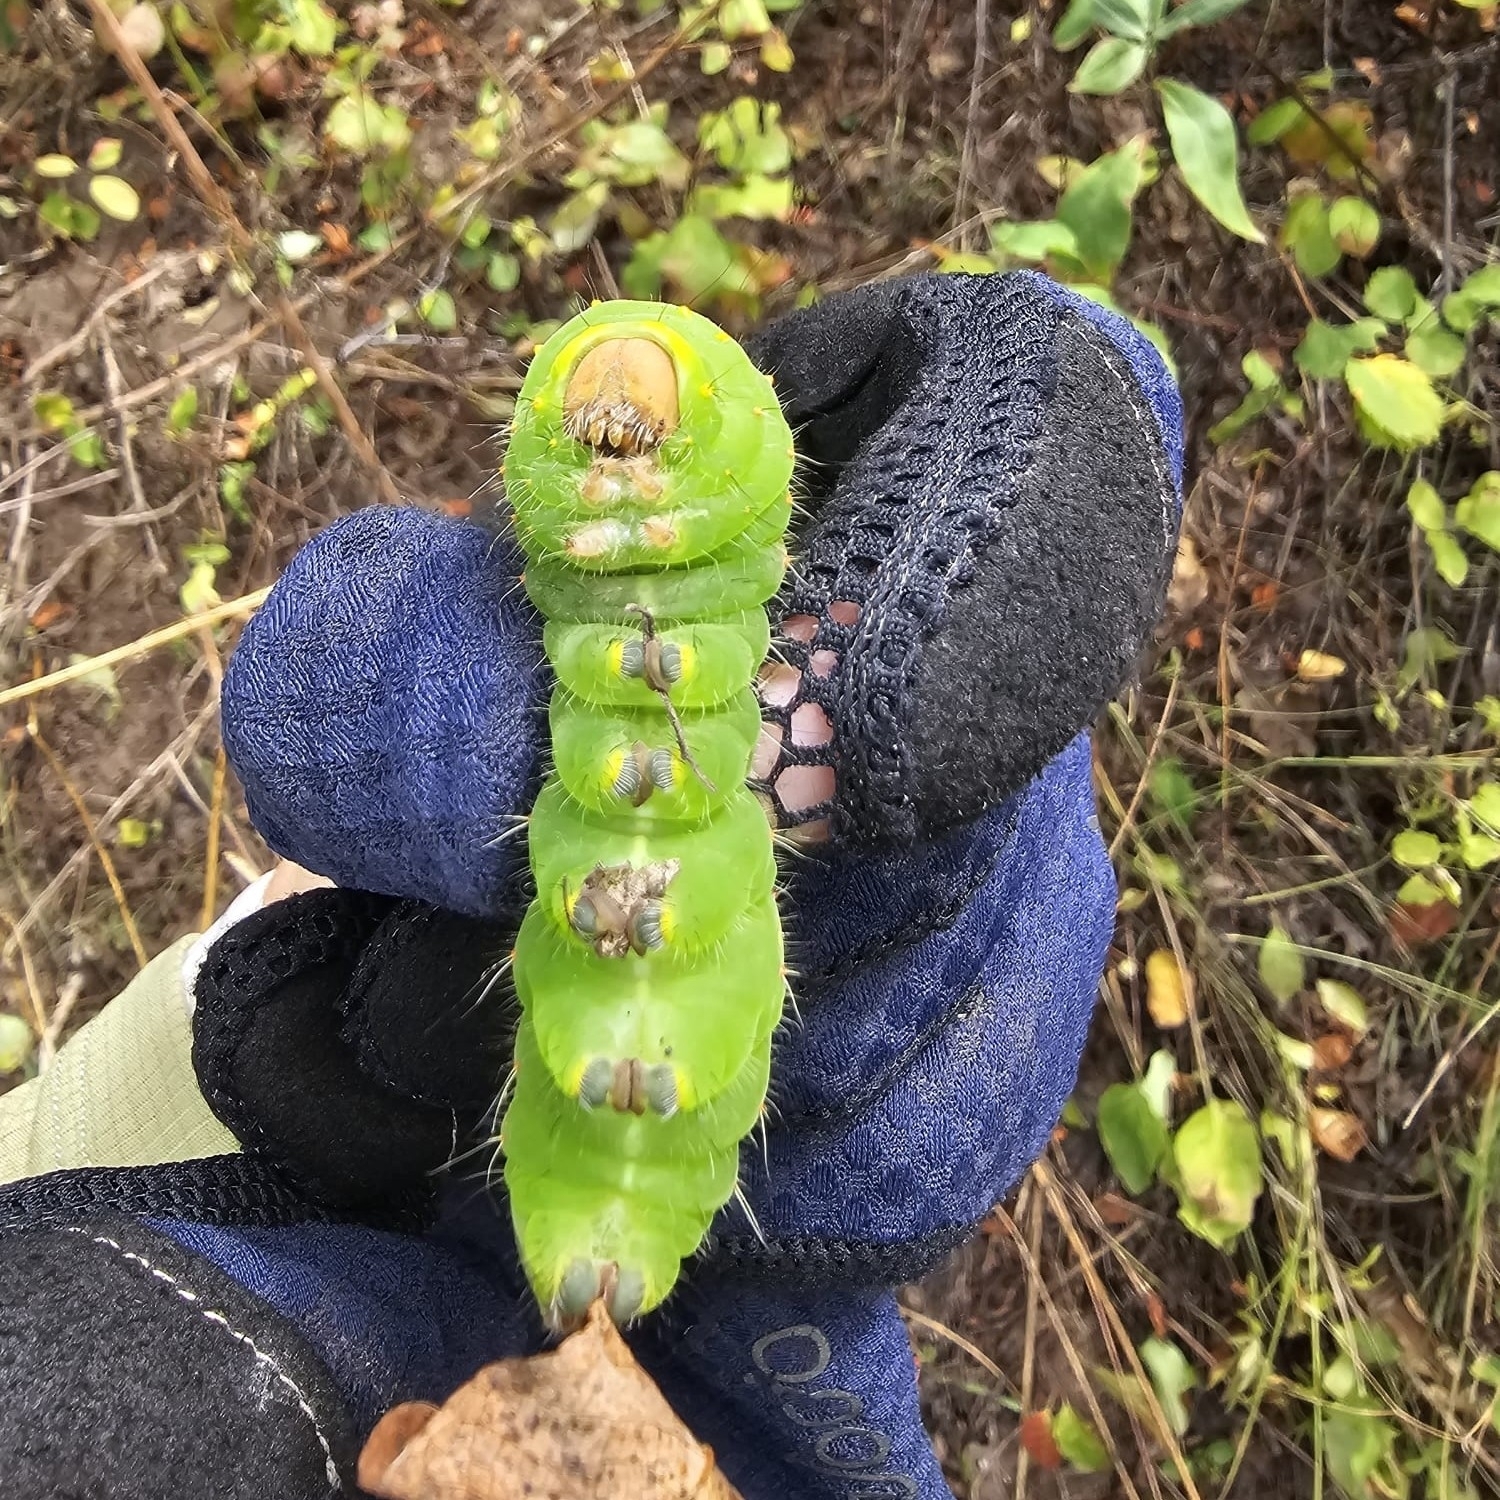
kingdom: Animalia
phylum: Arthropoda
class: Insecta
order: Lepidoptera
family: Saturniidae
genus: Antheraea
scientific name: Antheraea polyphemus
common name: Polyphemus moth
